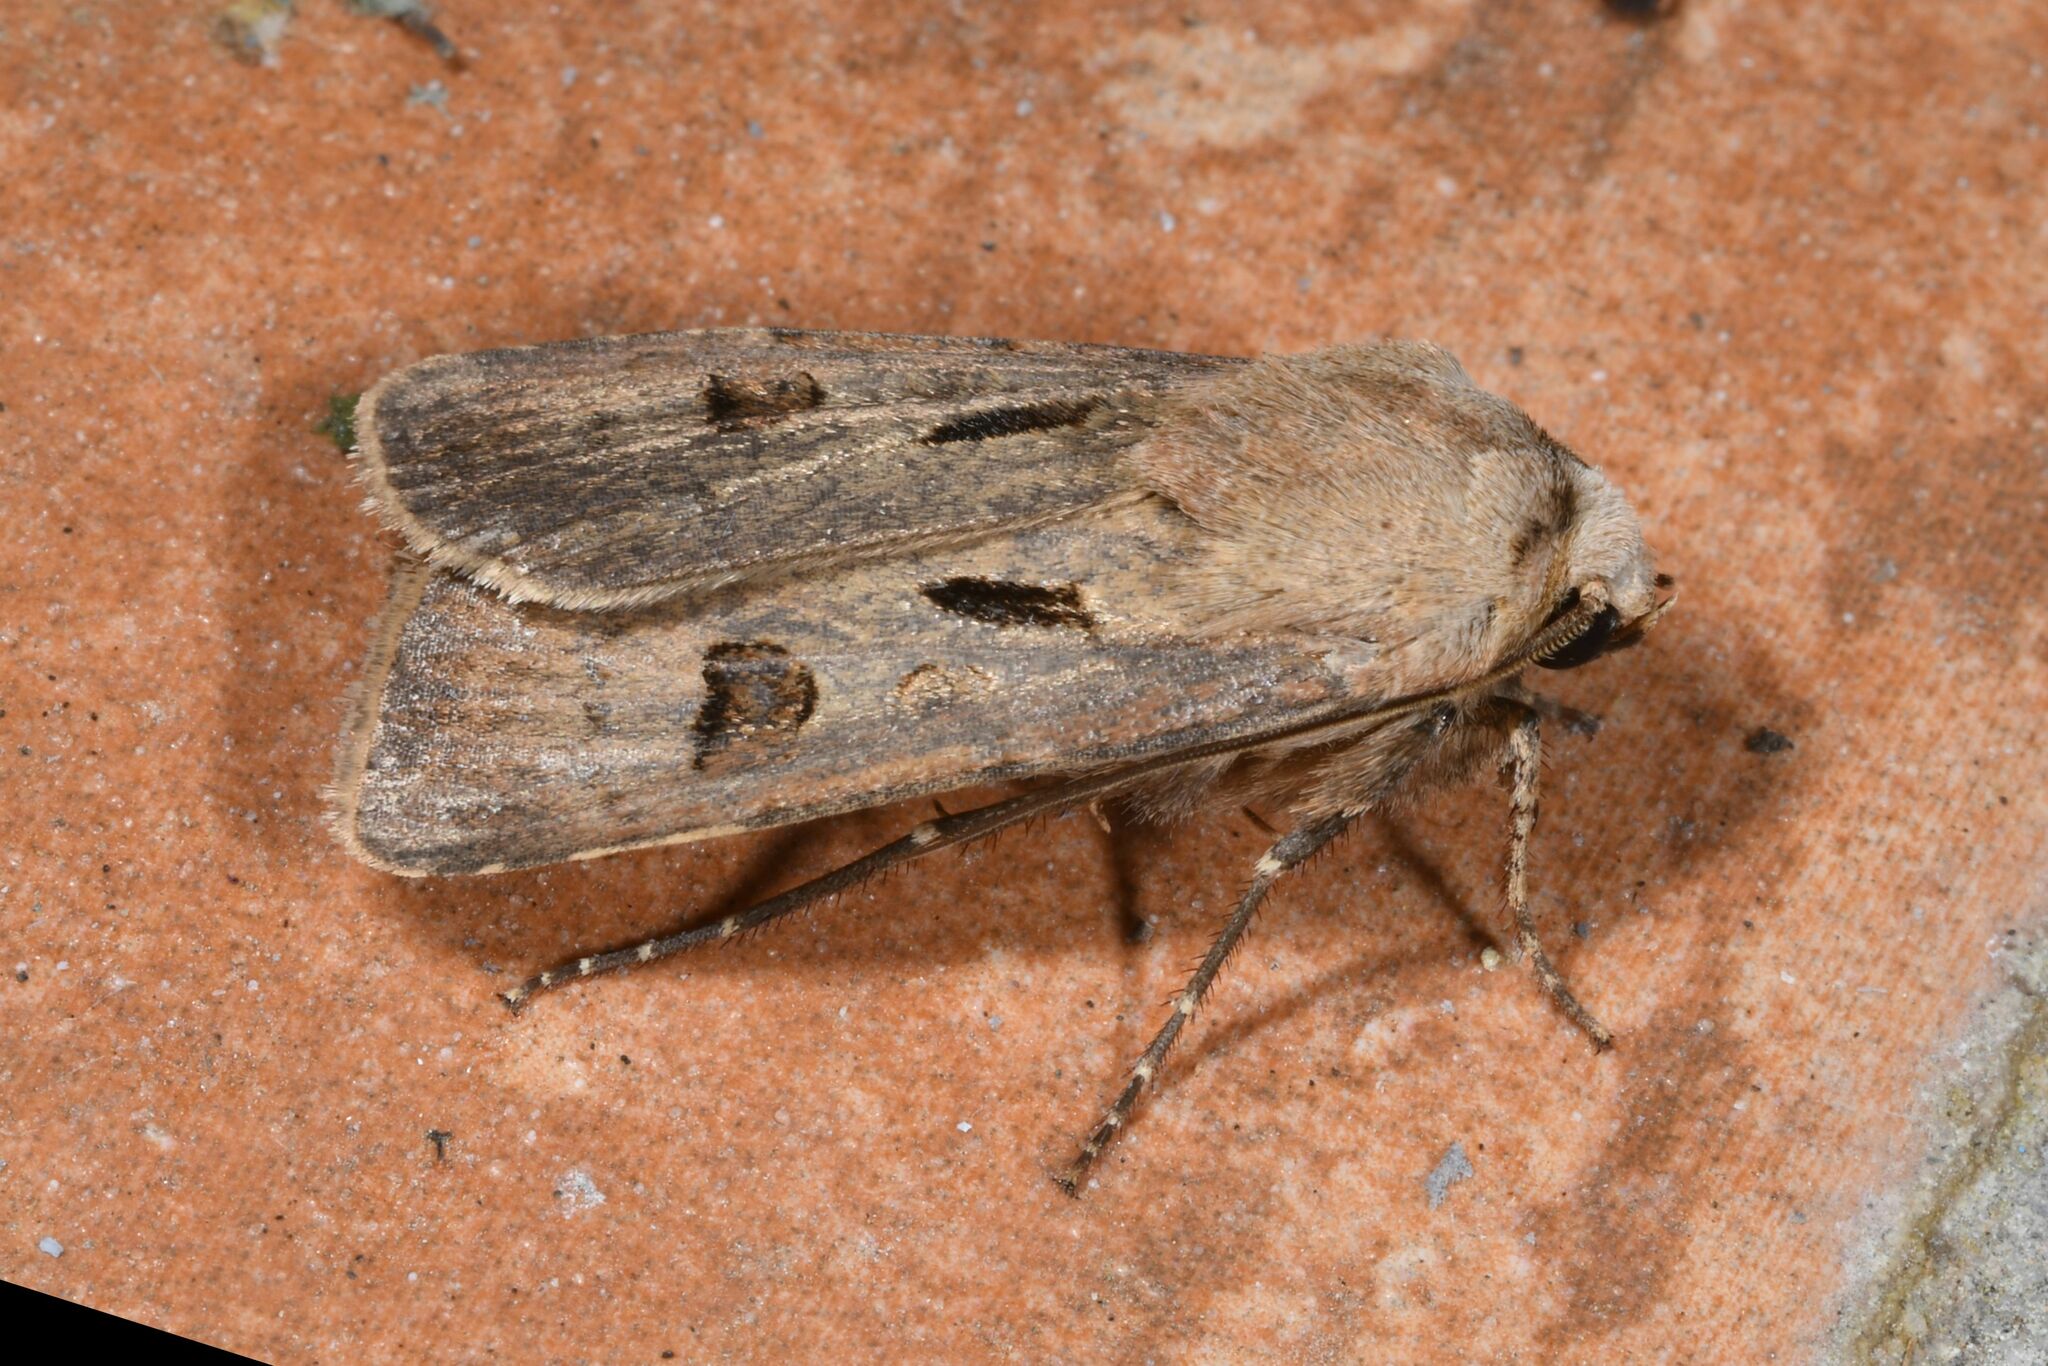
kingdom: Animalia
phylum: Arthropoda
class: Insecta
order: Lepidoptera
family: Noctuidae
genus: Agrotis
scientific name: Agrotis exclamationis
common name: Heart and dart
